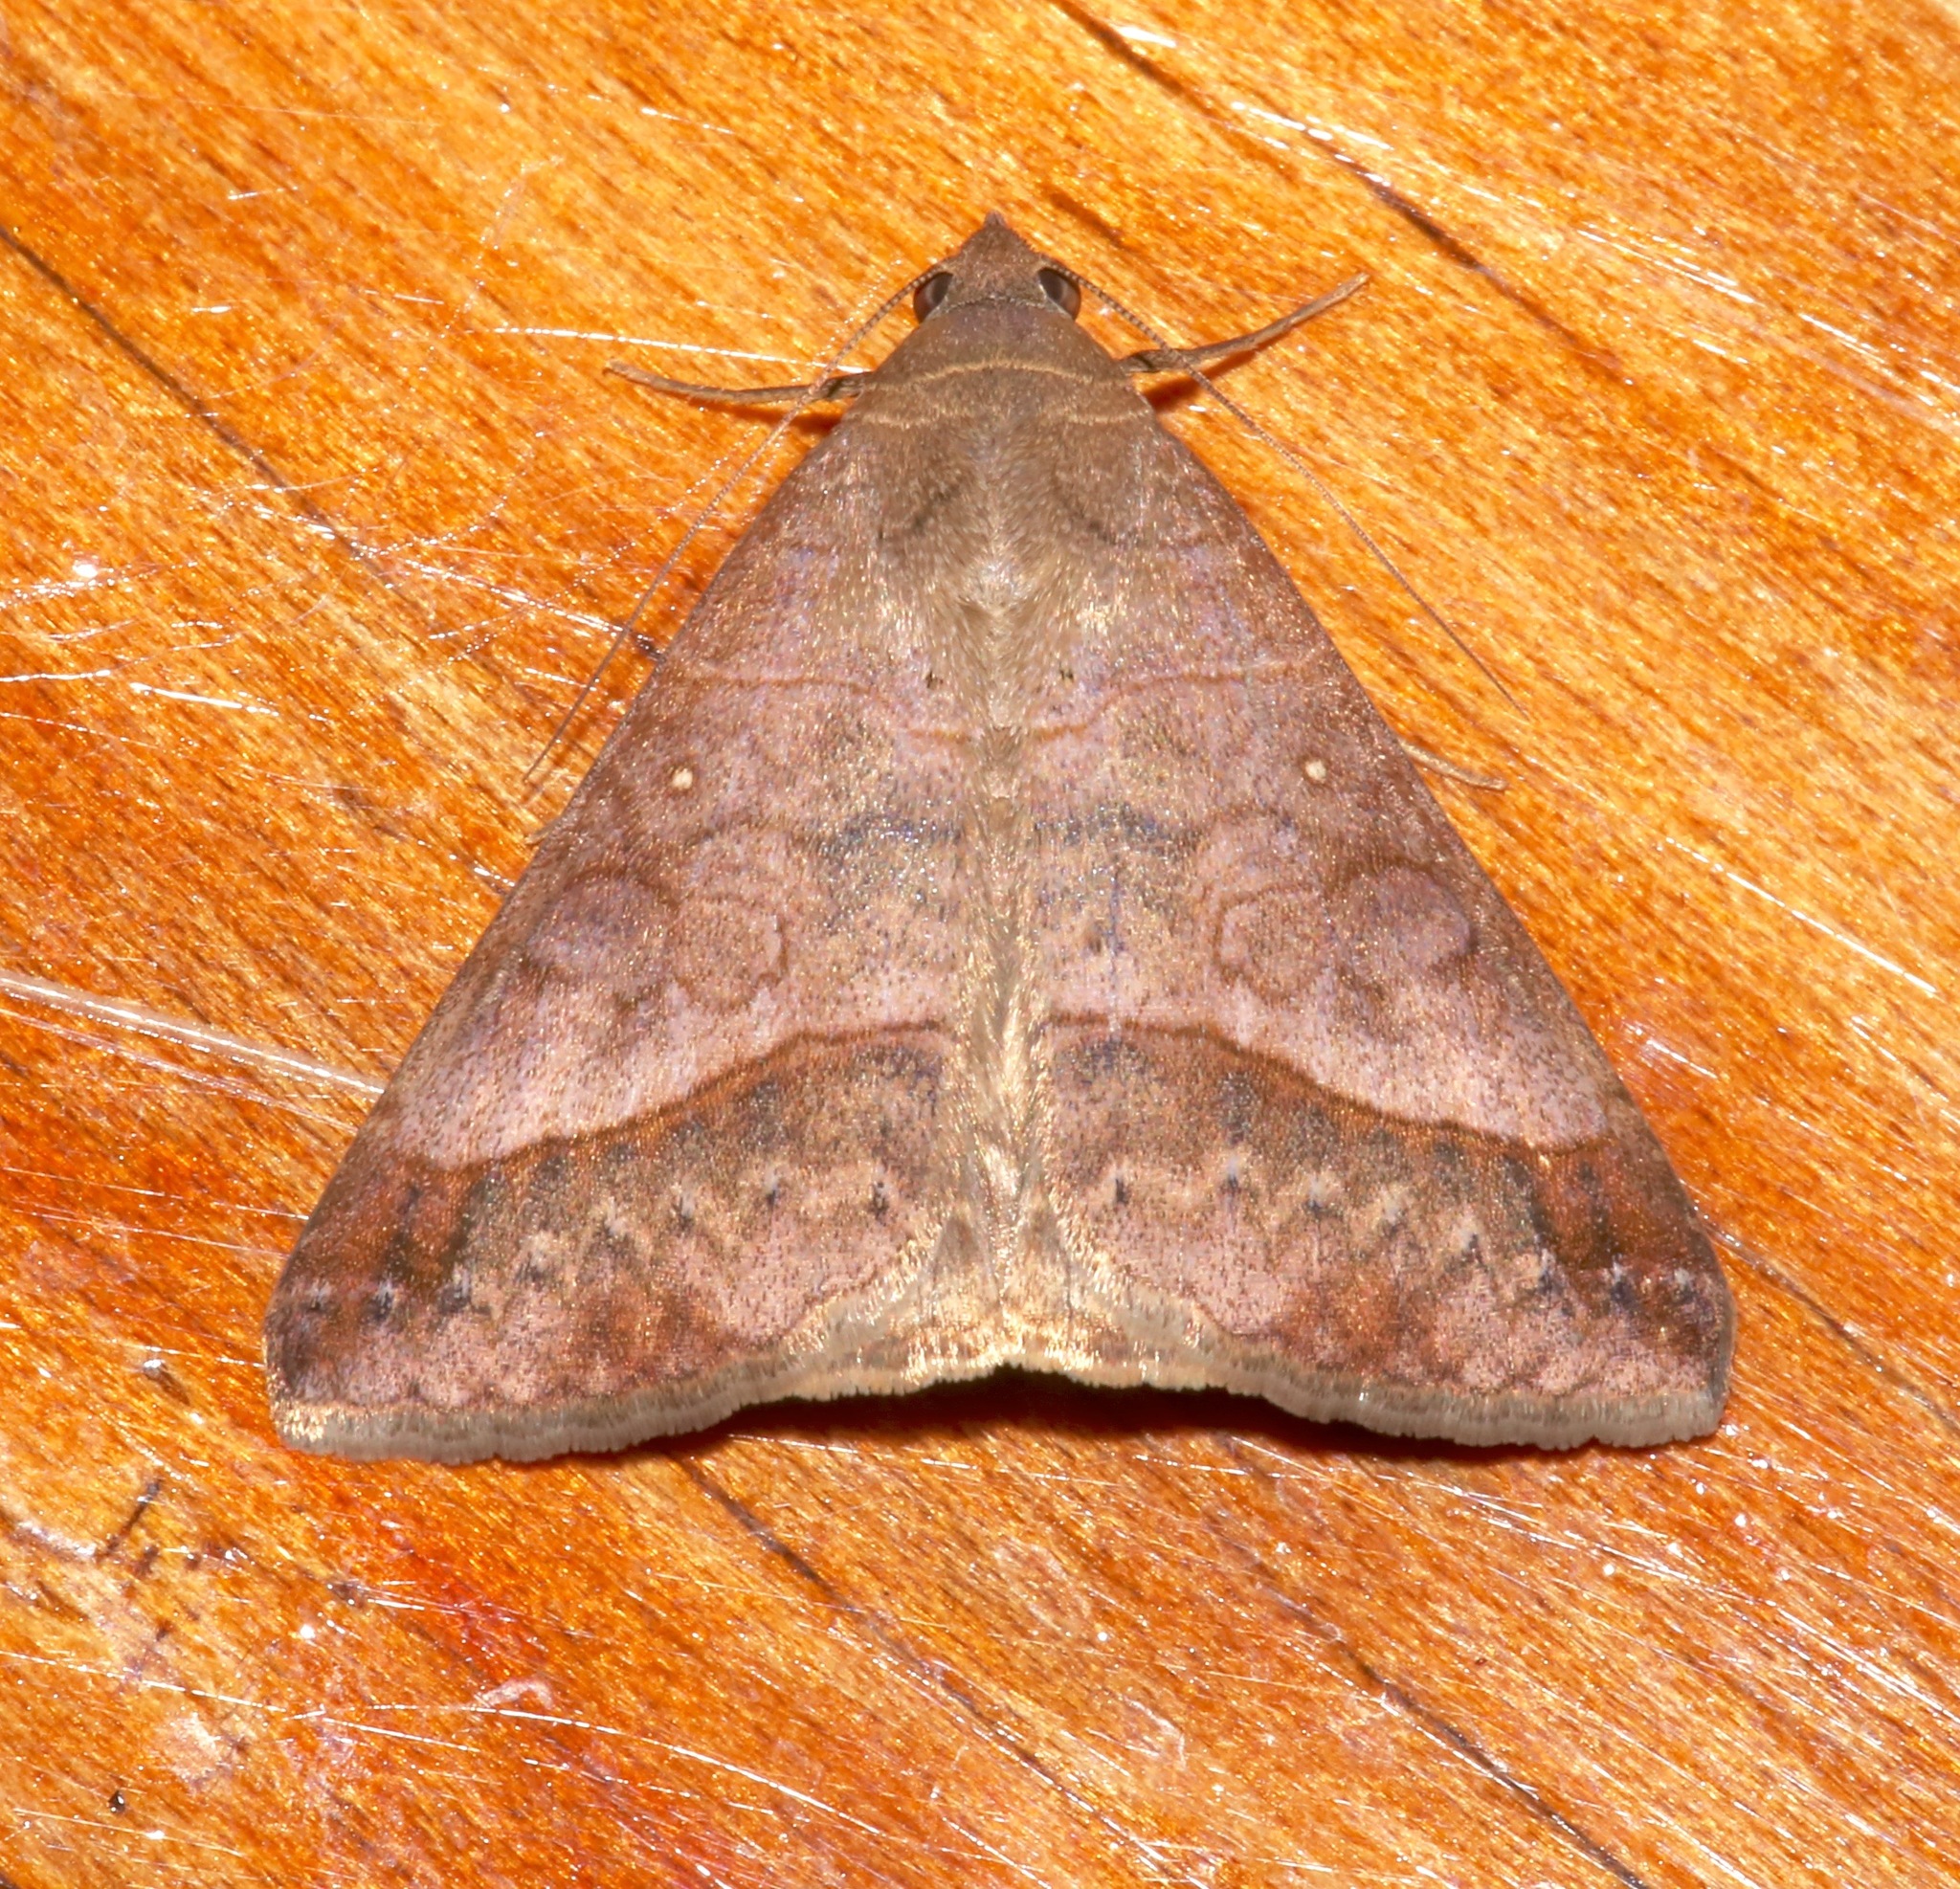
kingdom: Animalia
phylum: Arthropoda
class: Insecta
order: Lepidoptera
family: Erebidae
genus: Mocis
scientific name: Mocis latipes
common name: Striped grass looper
